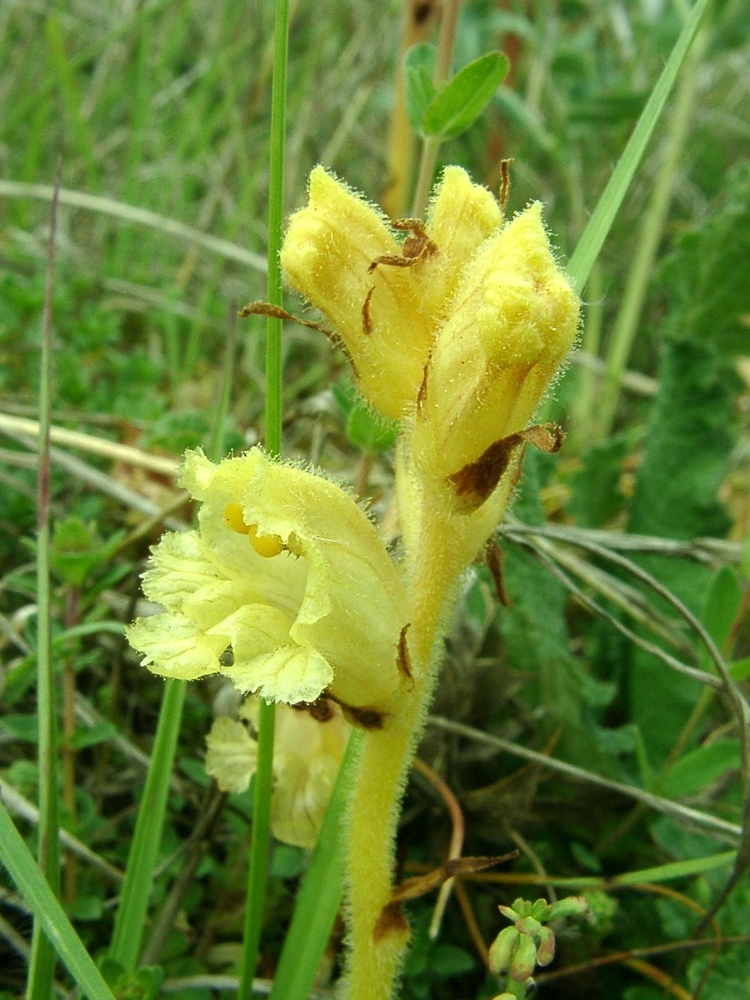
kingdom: Plantae
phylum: Tracheophyta
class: Magnoliopsida
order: Lamiales
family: Orobanchaceae
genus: Orobanche
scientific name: Orobanche alba
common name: Thyme broomrape
